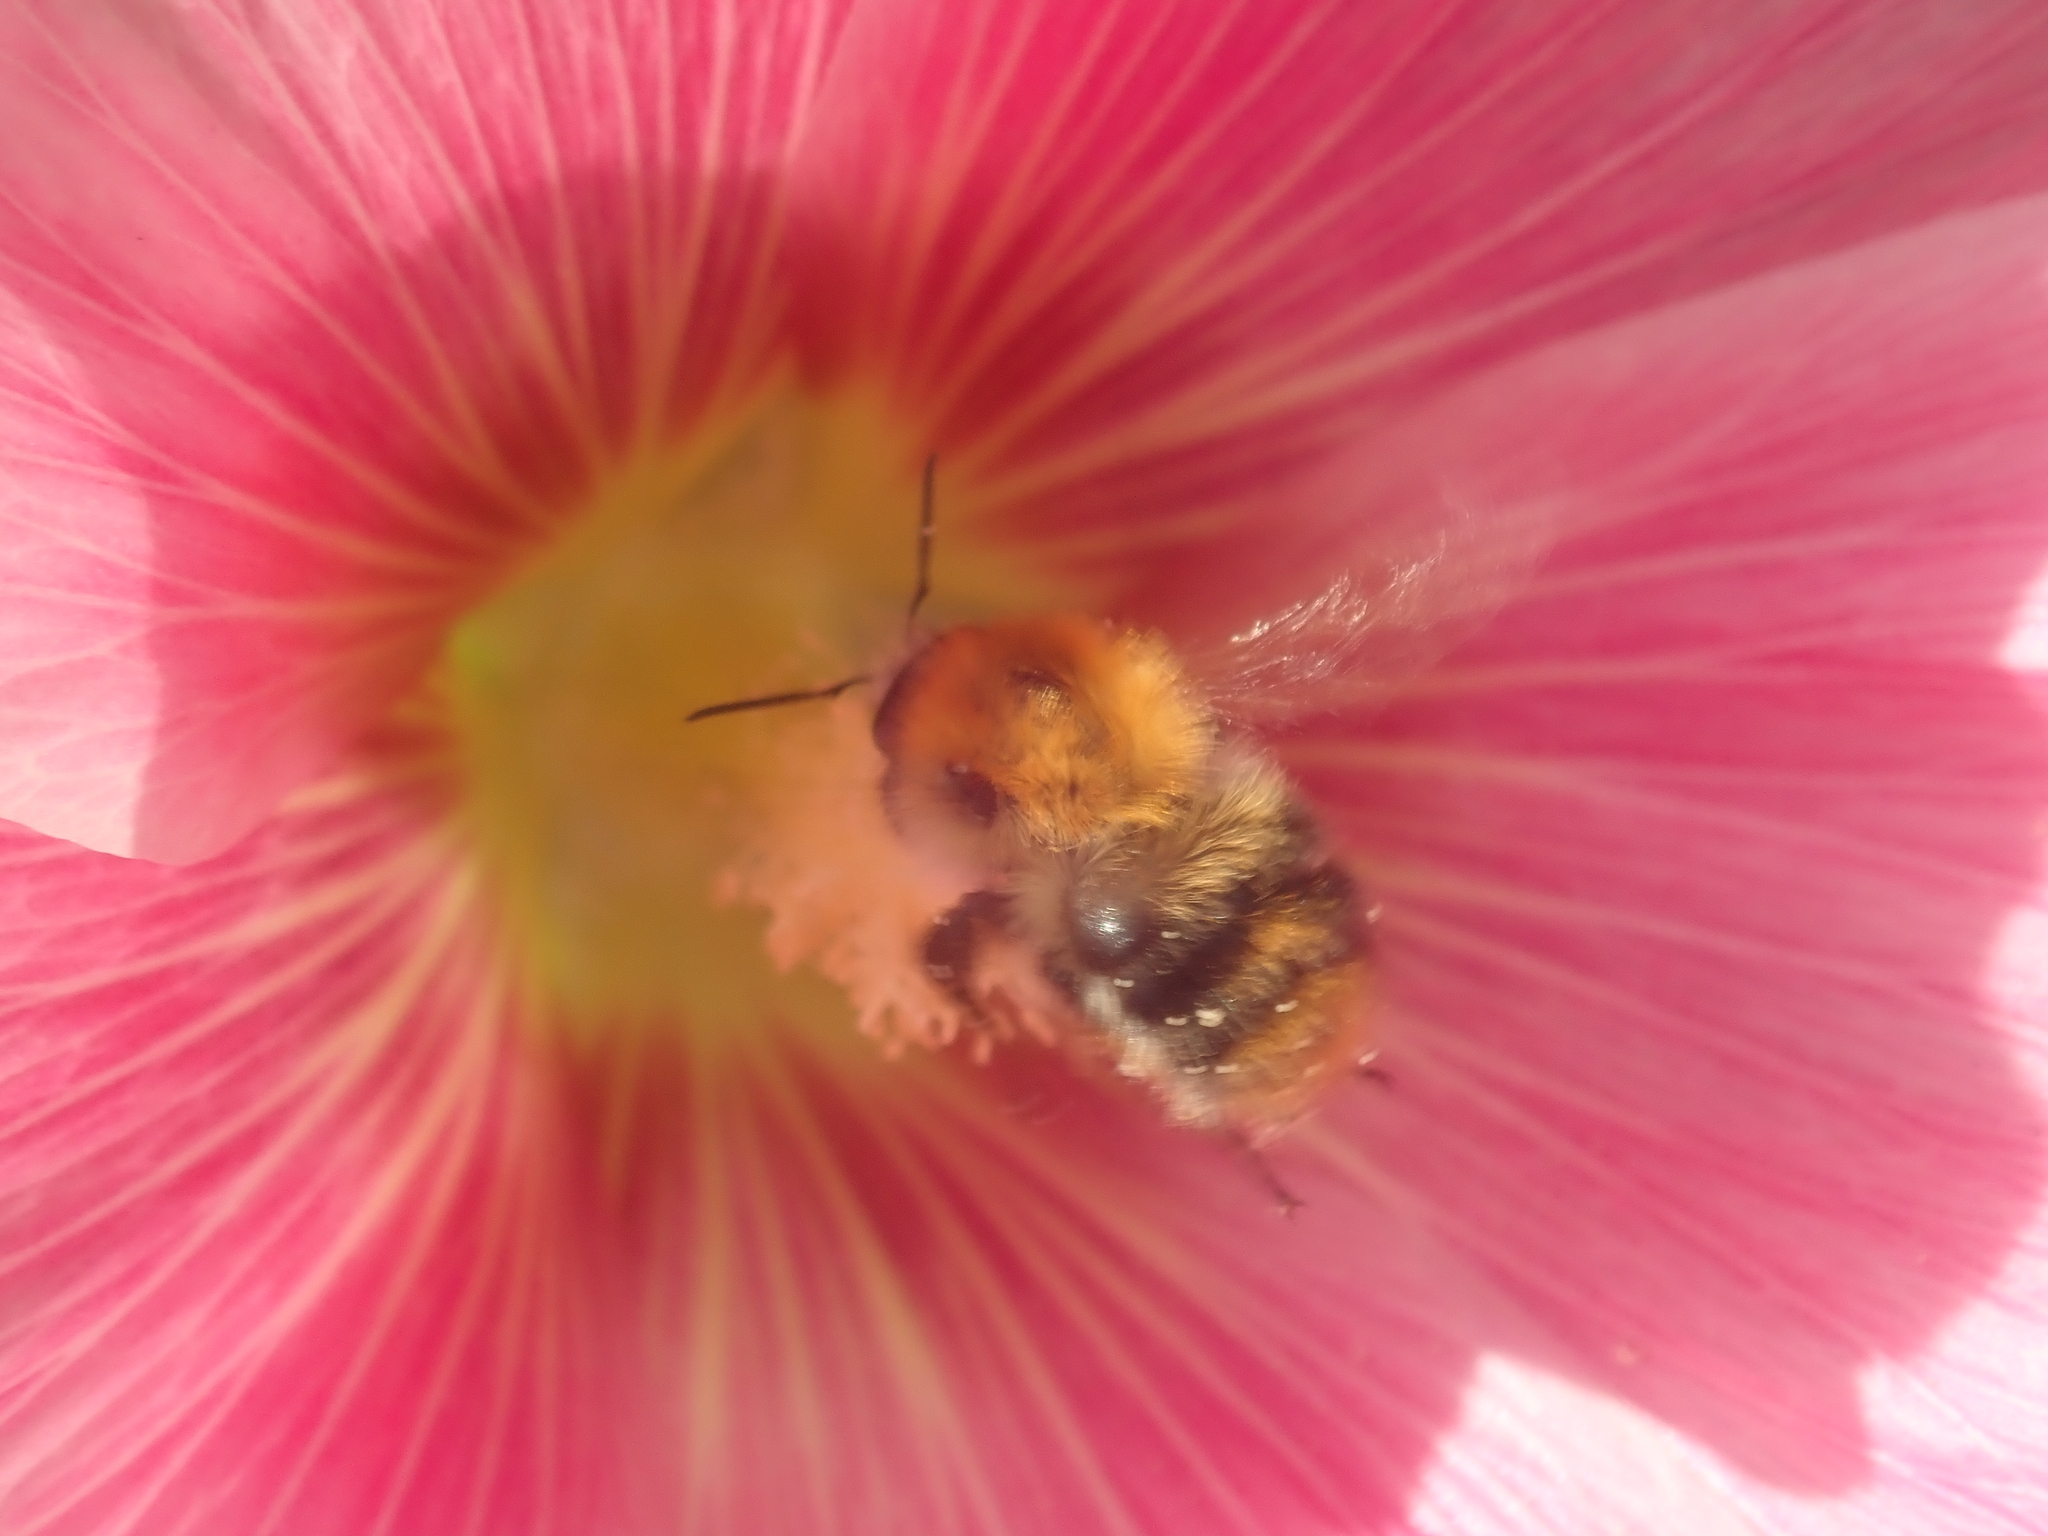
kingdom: Animalia
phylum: Arthropoda
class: Insecta
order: Hymenoptera
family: Apidae
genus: Bombus
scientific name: Bombus pascuorum
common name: Common carder bee
